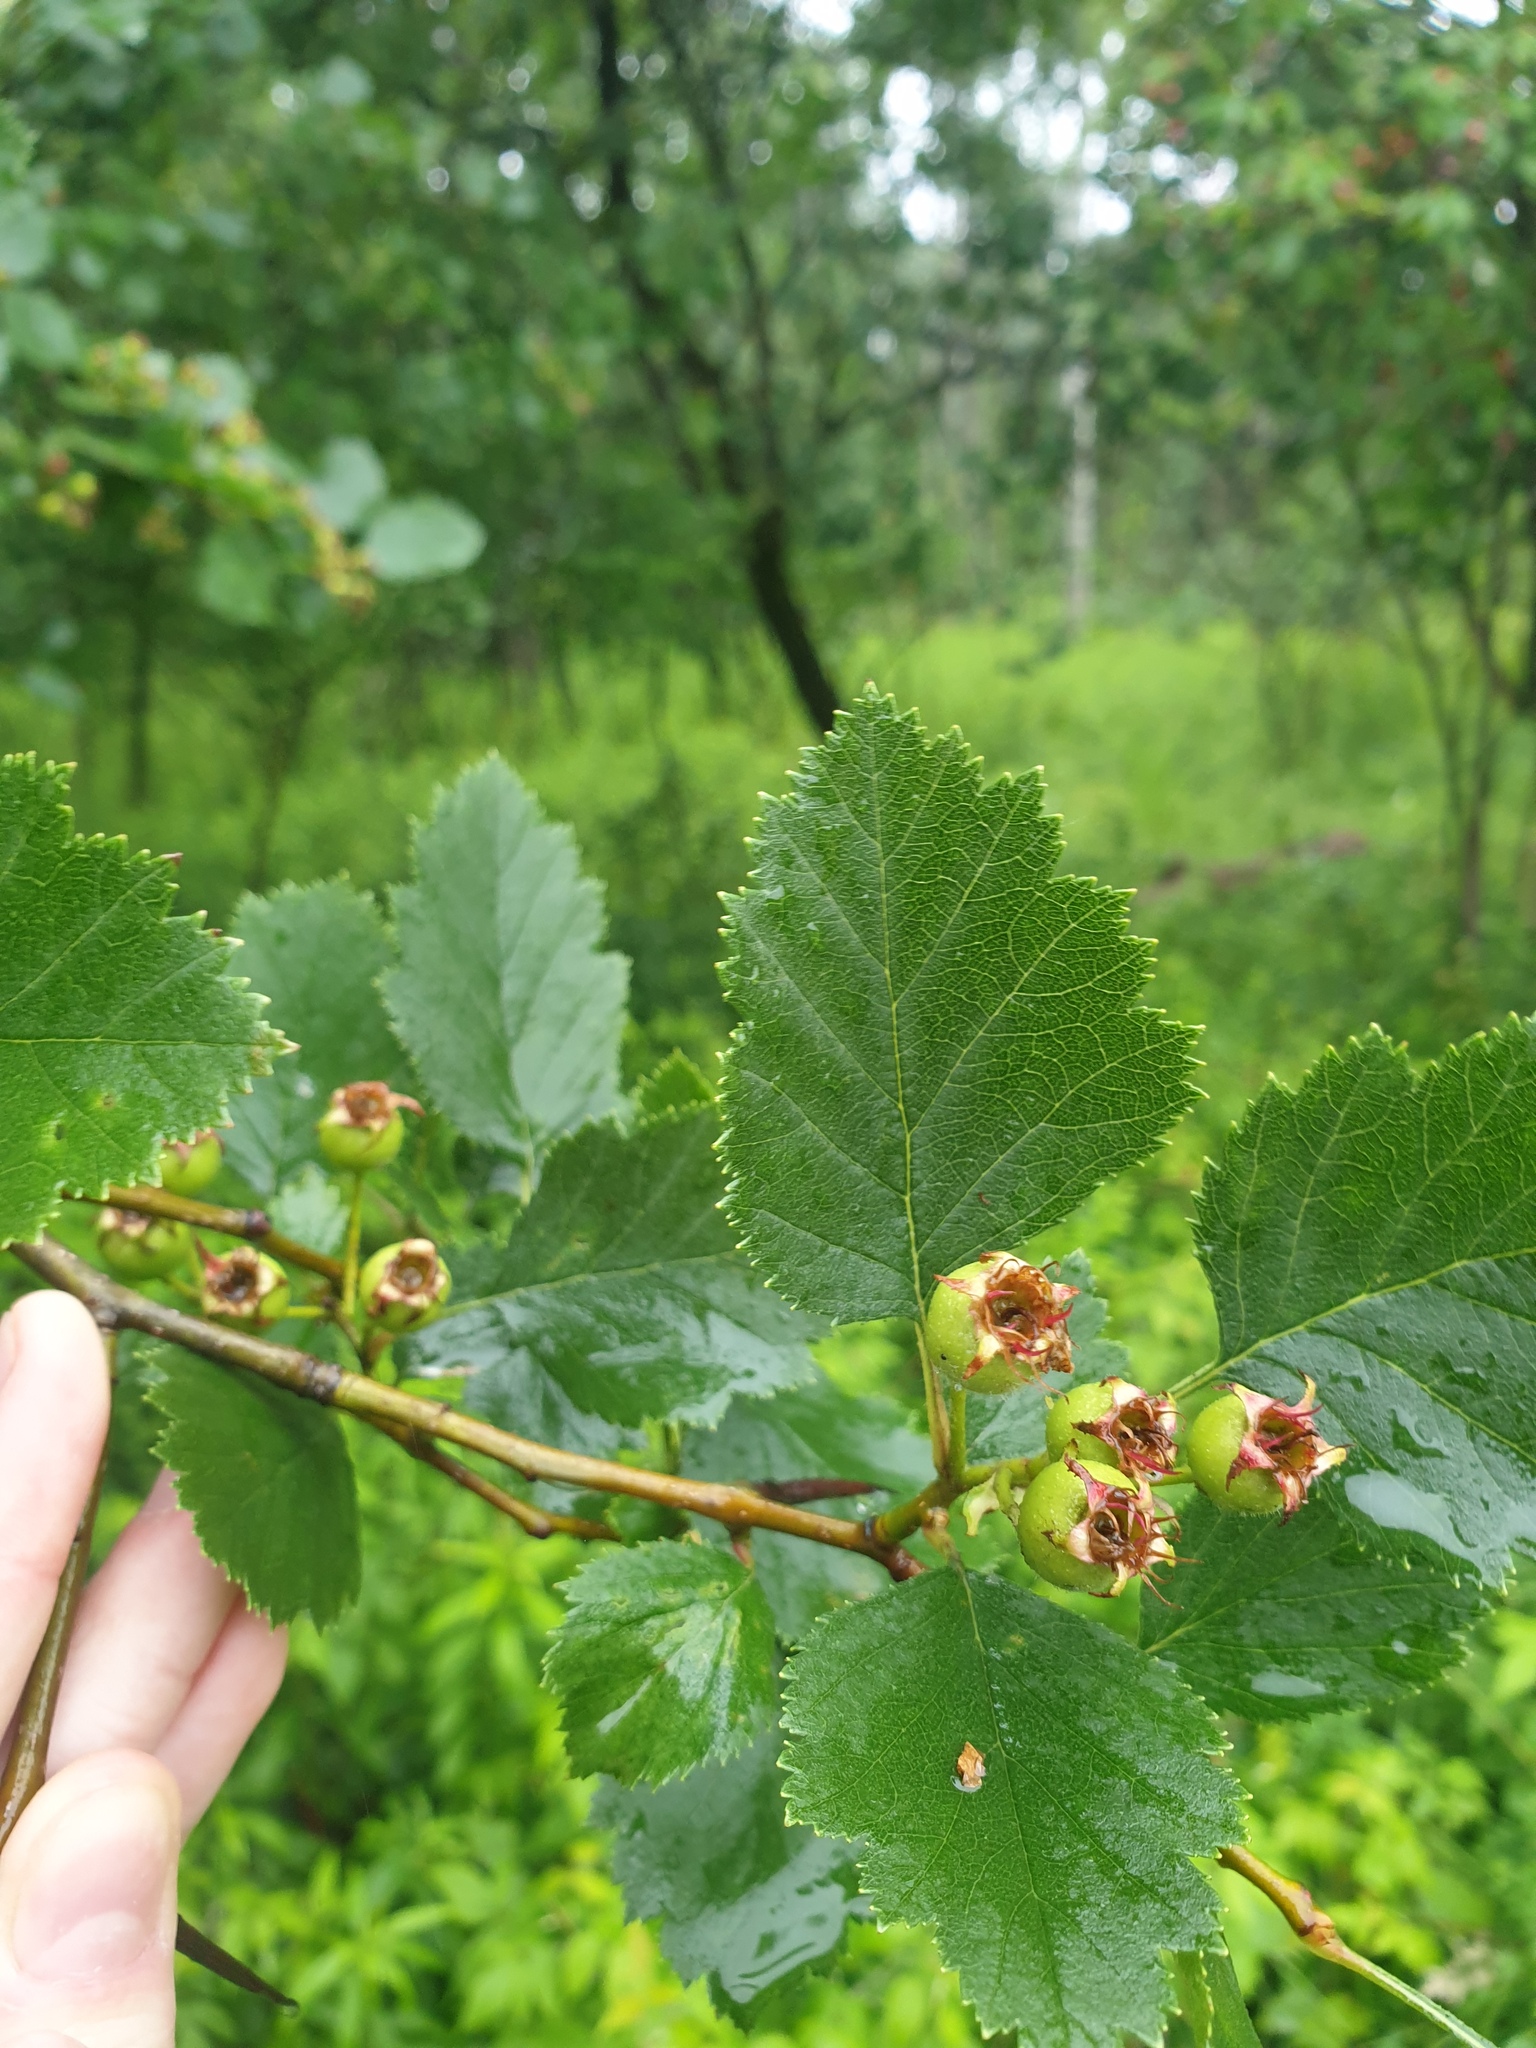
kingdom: Plantae
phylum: Tracheophyta
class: Magnoliopsida
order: Rosales
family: Rosaceae
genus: Crataegus
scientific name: Crataegus submollis
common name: Hairy cockspurthorn
